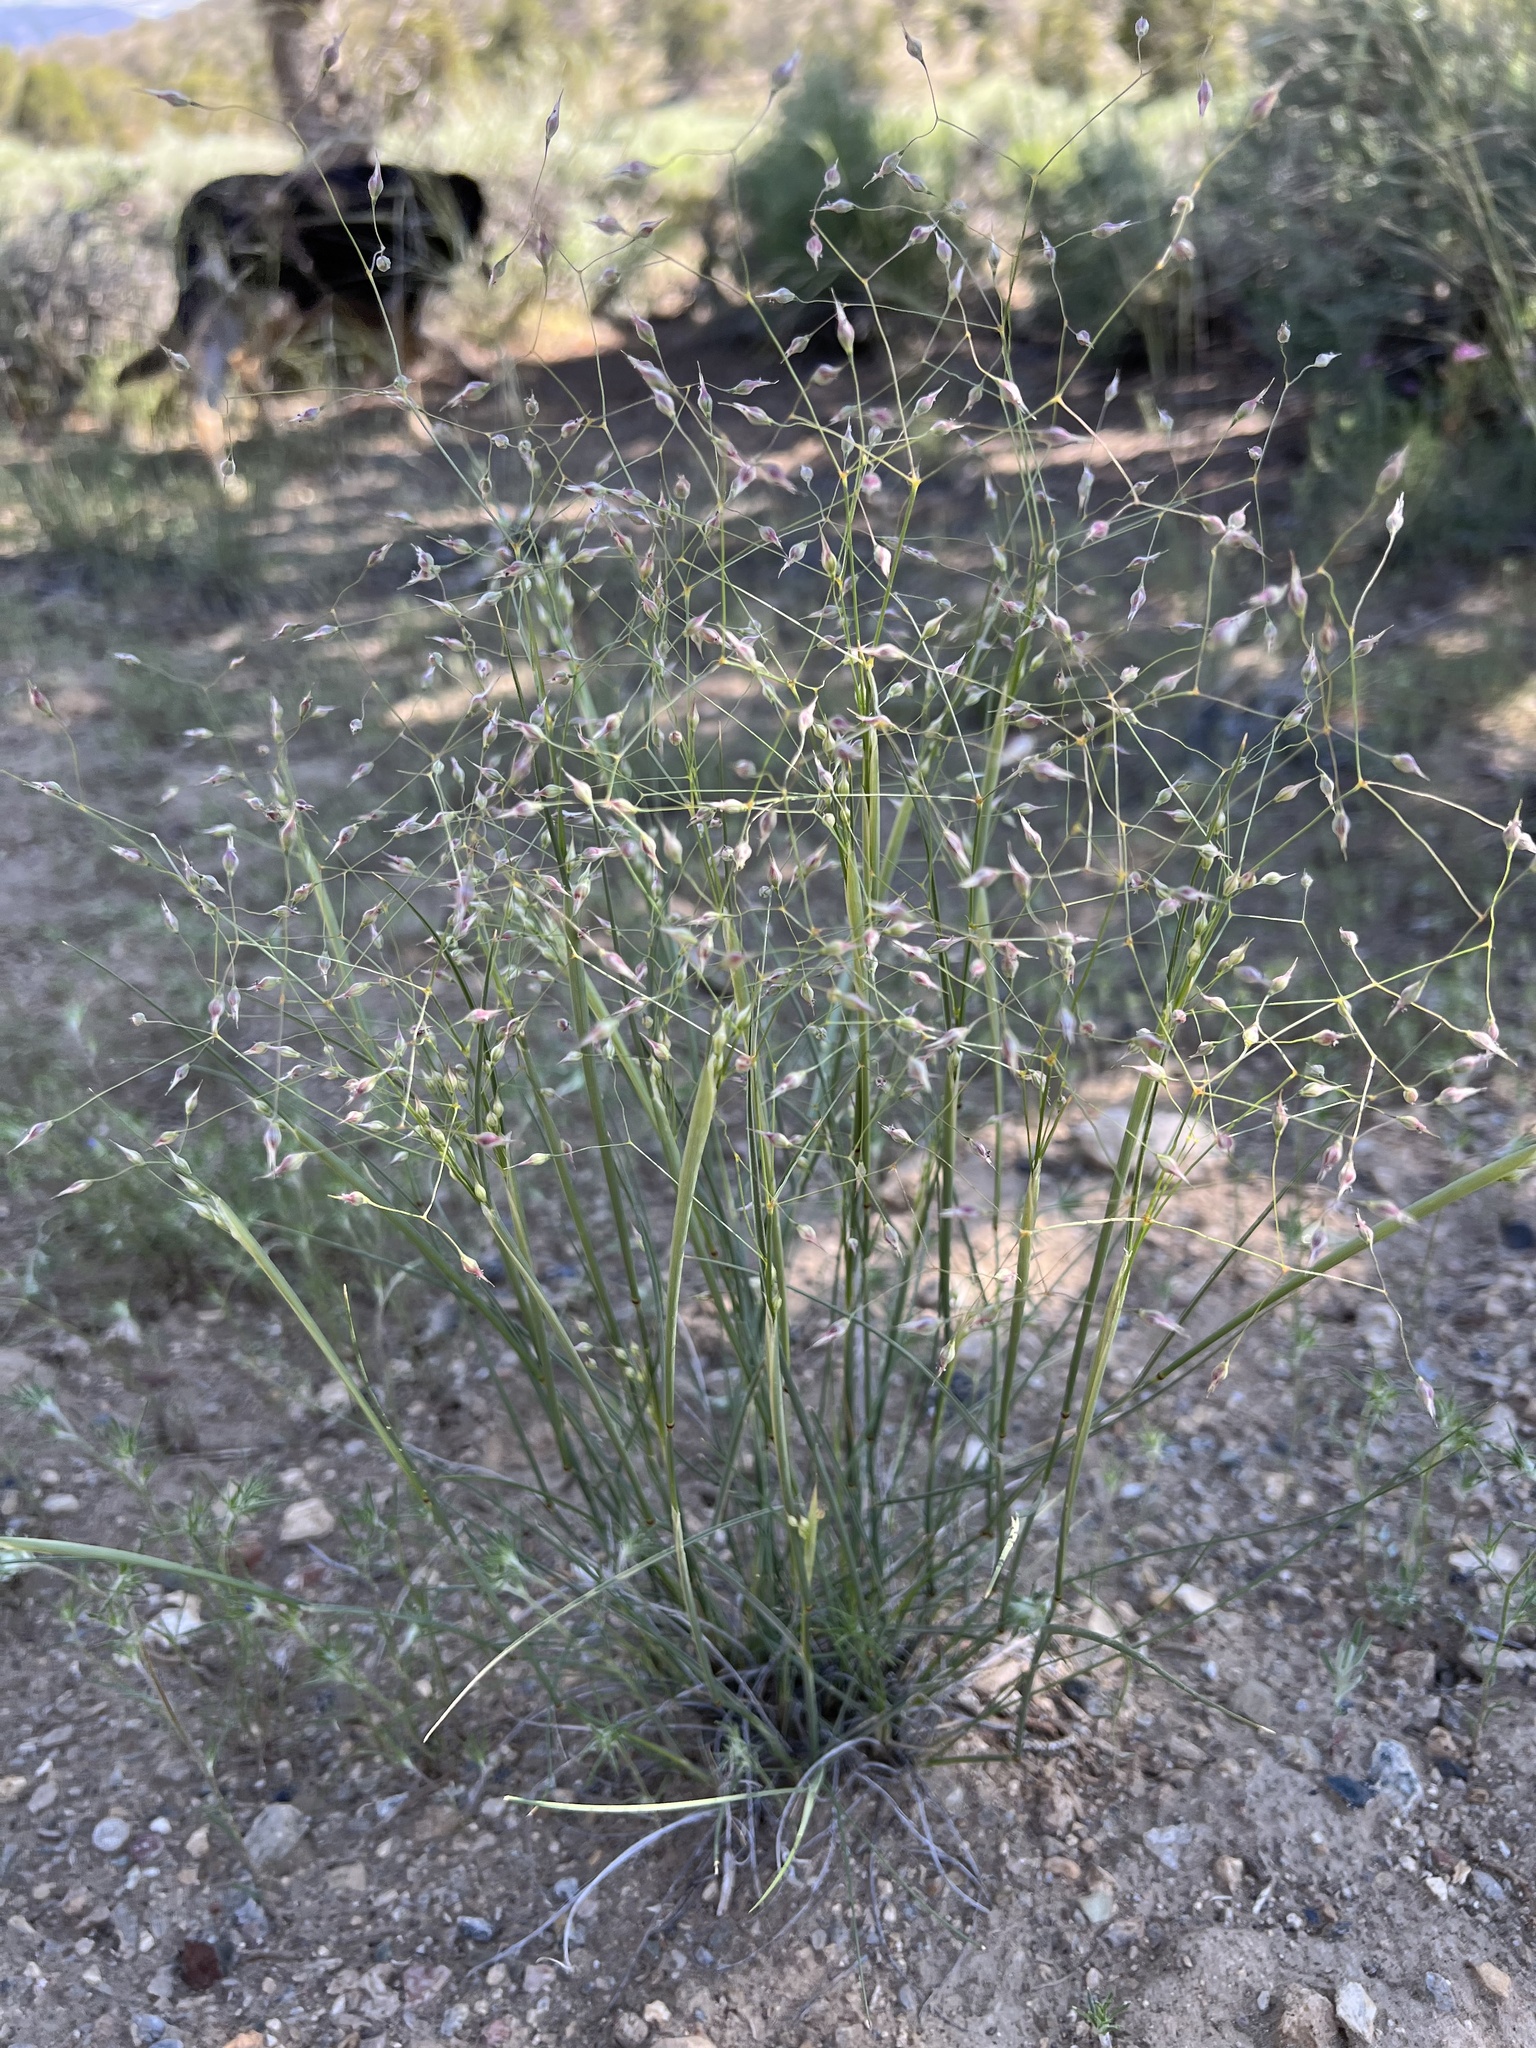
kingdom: Plantae
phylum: Tracheophyta
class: Liliopsida
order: Poales
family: Poaceae
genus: Eriocoma
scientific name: Eriocoma hymenoides
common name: Indian mountain ricegrass
